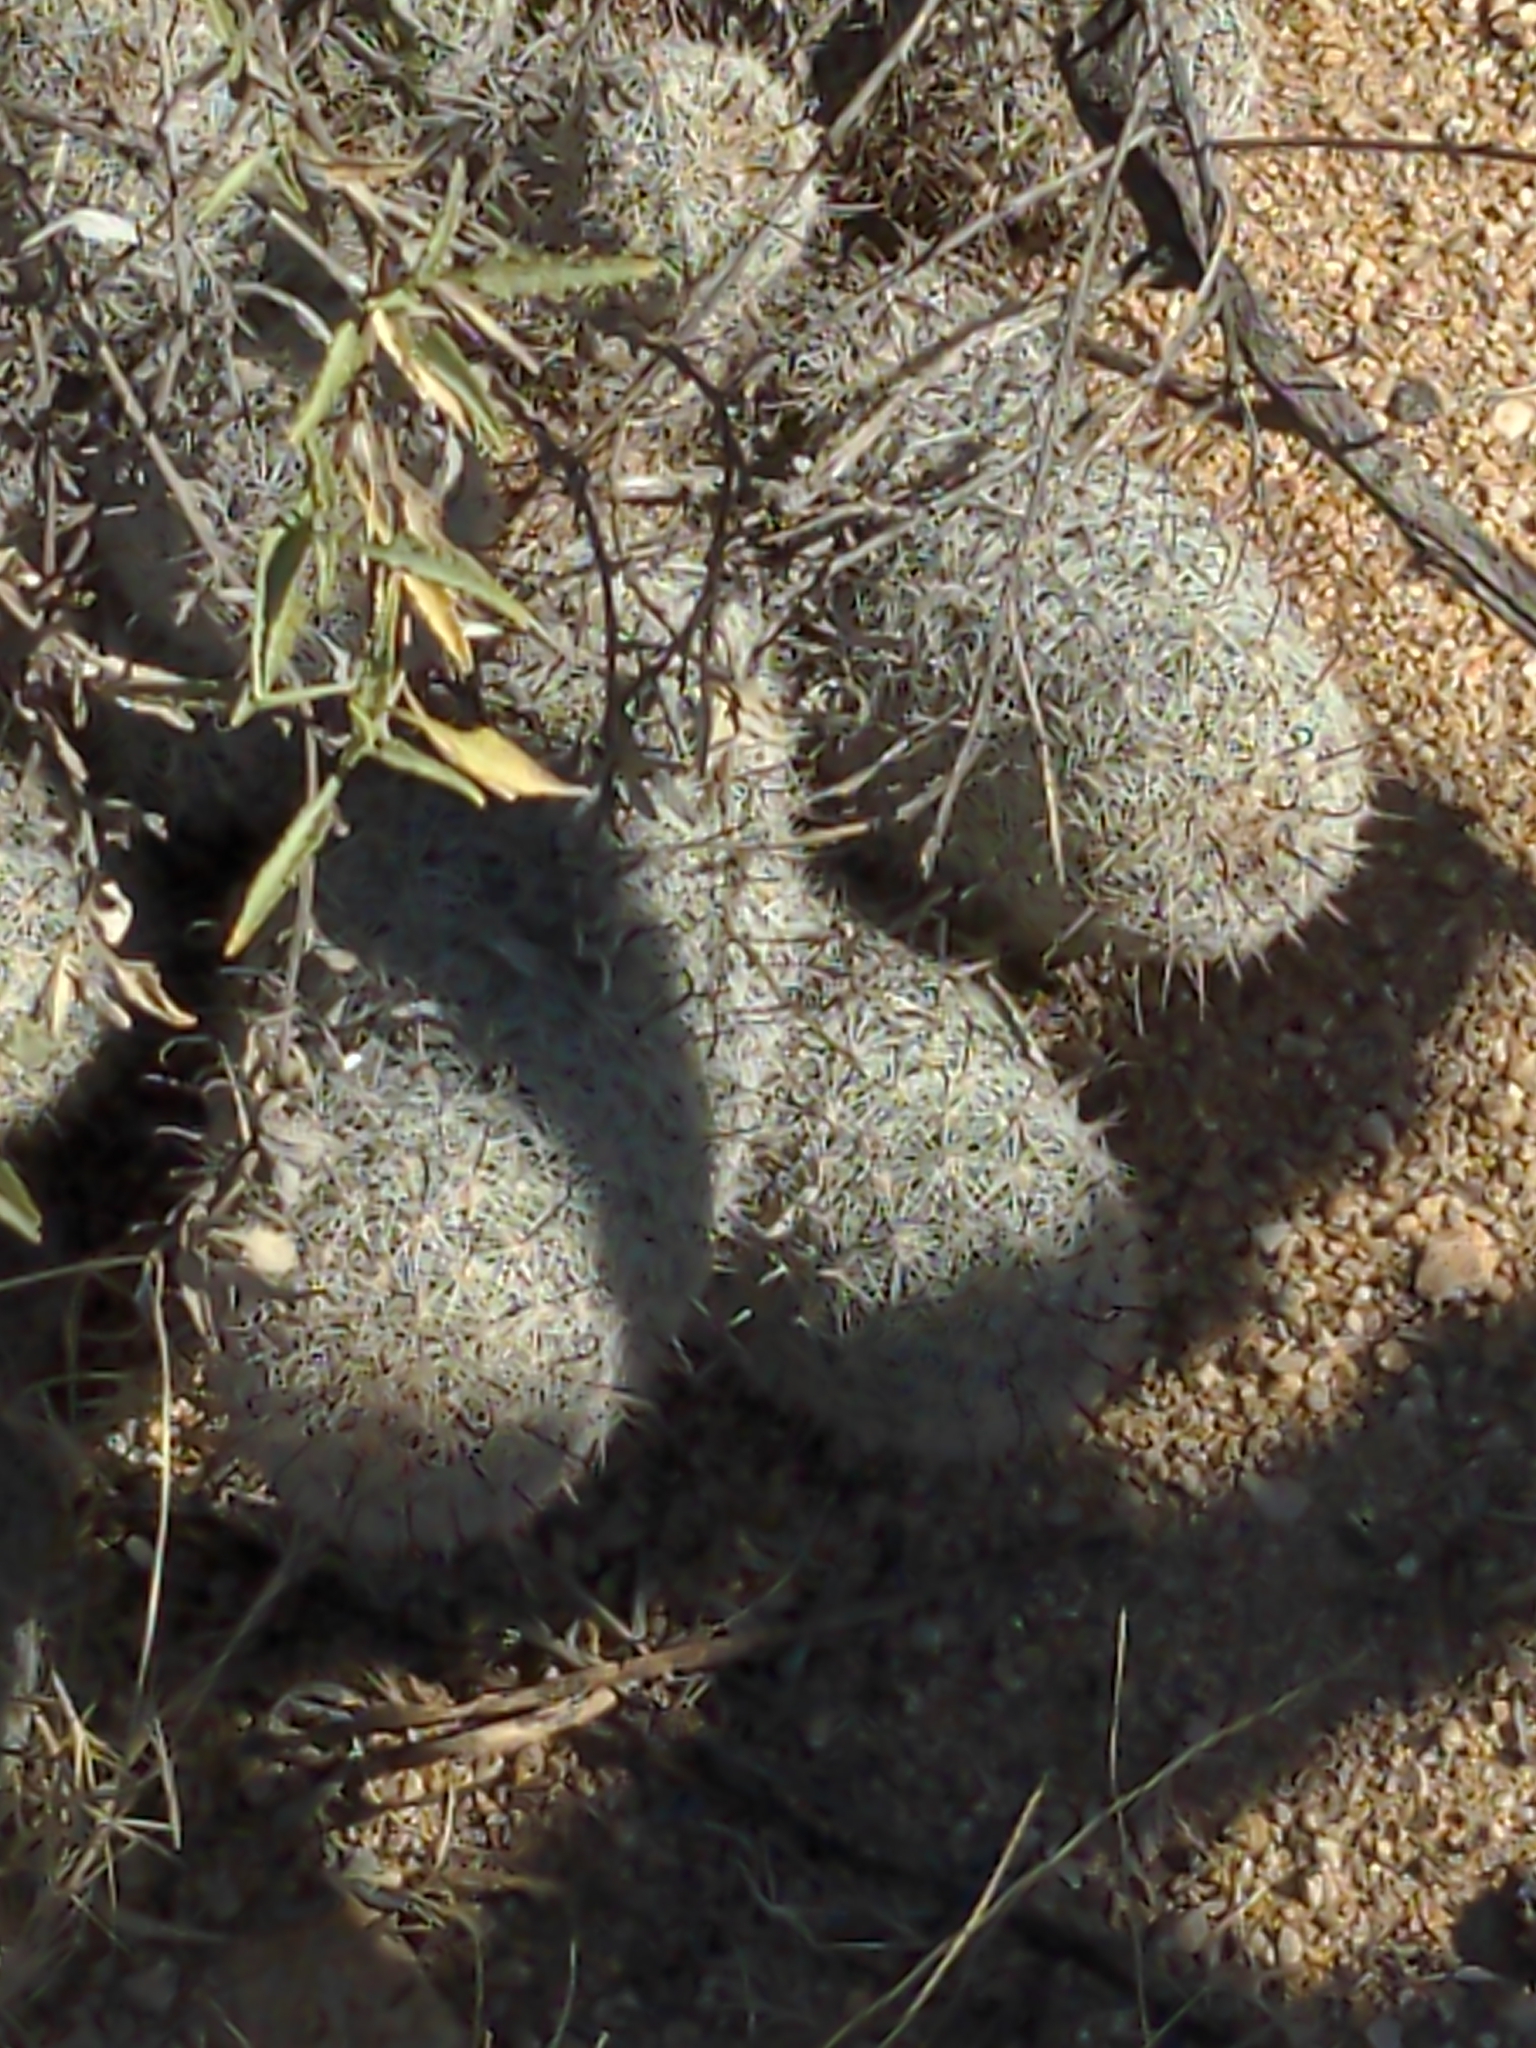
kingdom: Plantae
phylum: Tracheophyta
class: Magnoliopsida
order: Caryophyllales
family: Cactaceae
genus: Cochemiea
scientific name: Cochemiea grahamii
